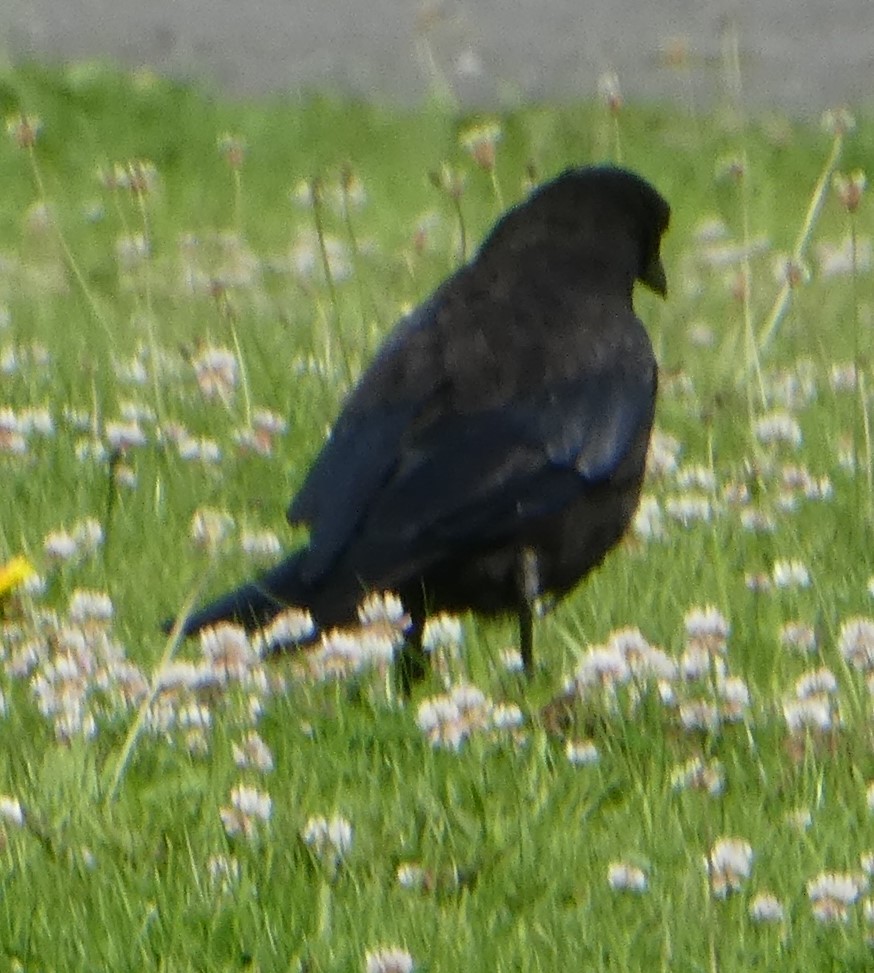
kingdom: Animalia
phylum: Chordata
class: Aves
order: Passeriformes
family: Corvidae
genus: Corvus
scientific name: Corvus corone
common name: Carrion crow
